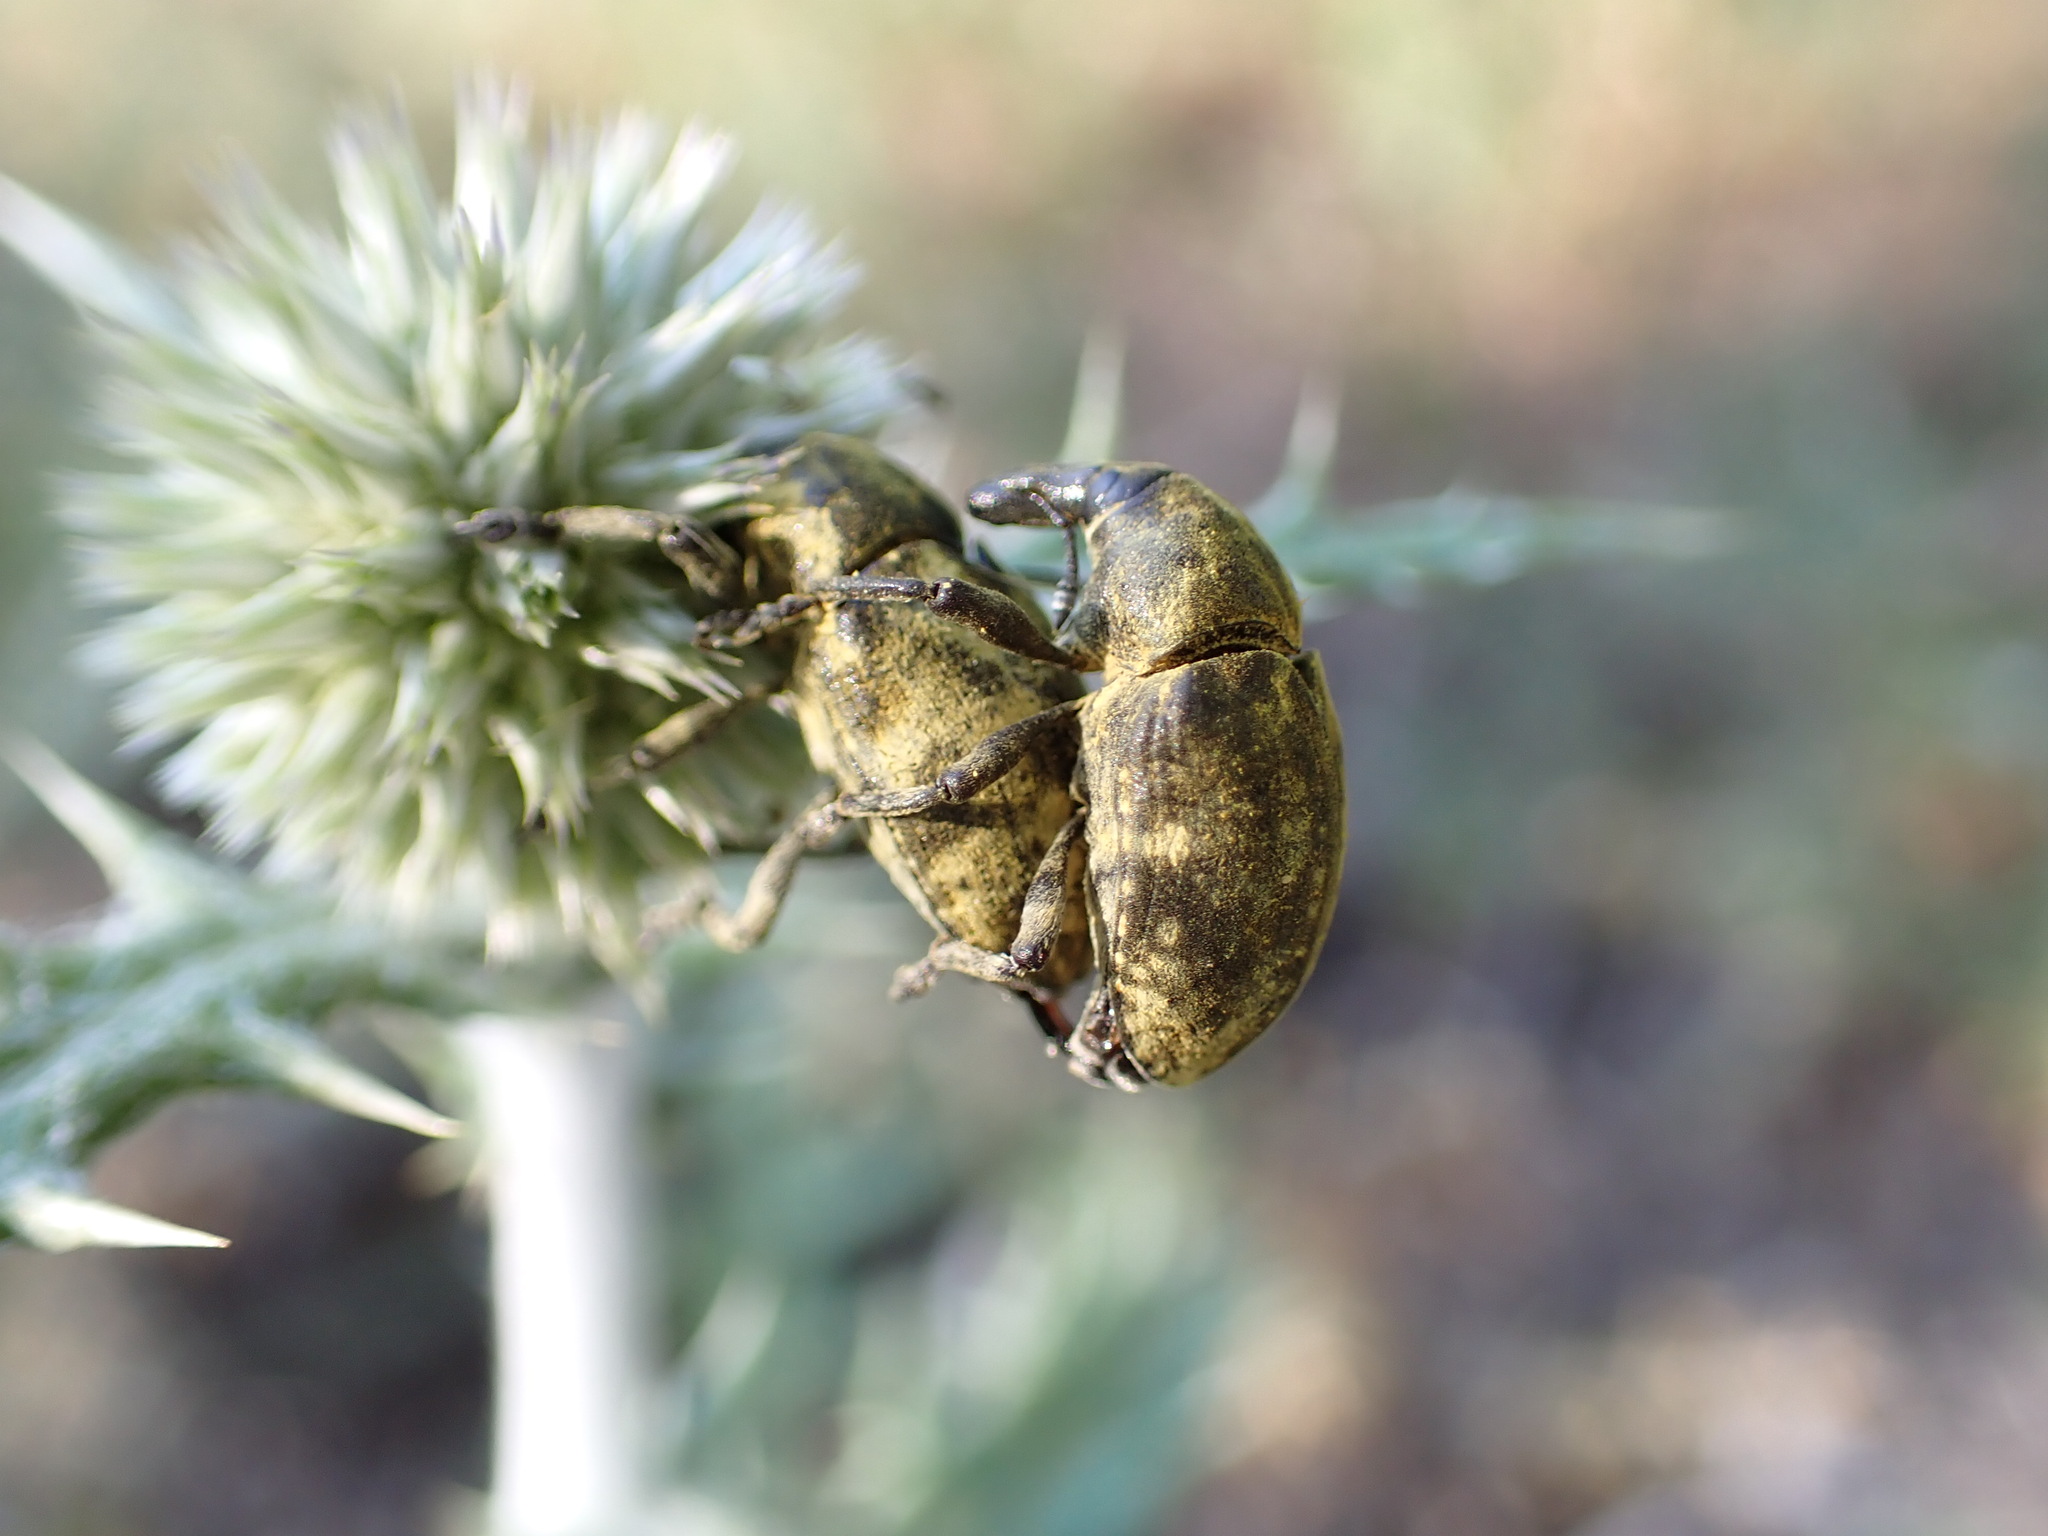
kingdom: Animalia
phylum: Arthropoda
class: Insecta
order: Coleoptera
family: Curculionidae
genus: Larinus
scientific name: Larinus vulpes
